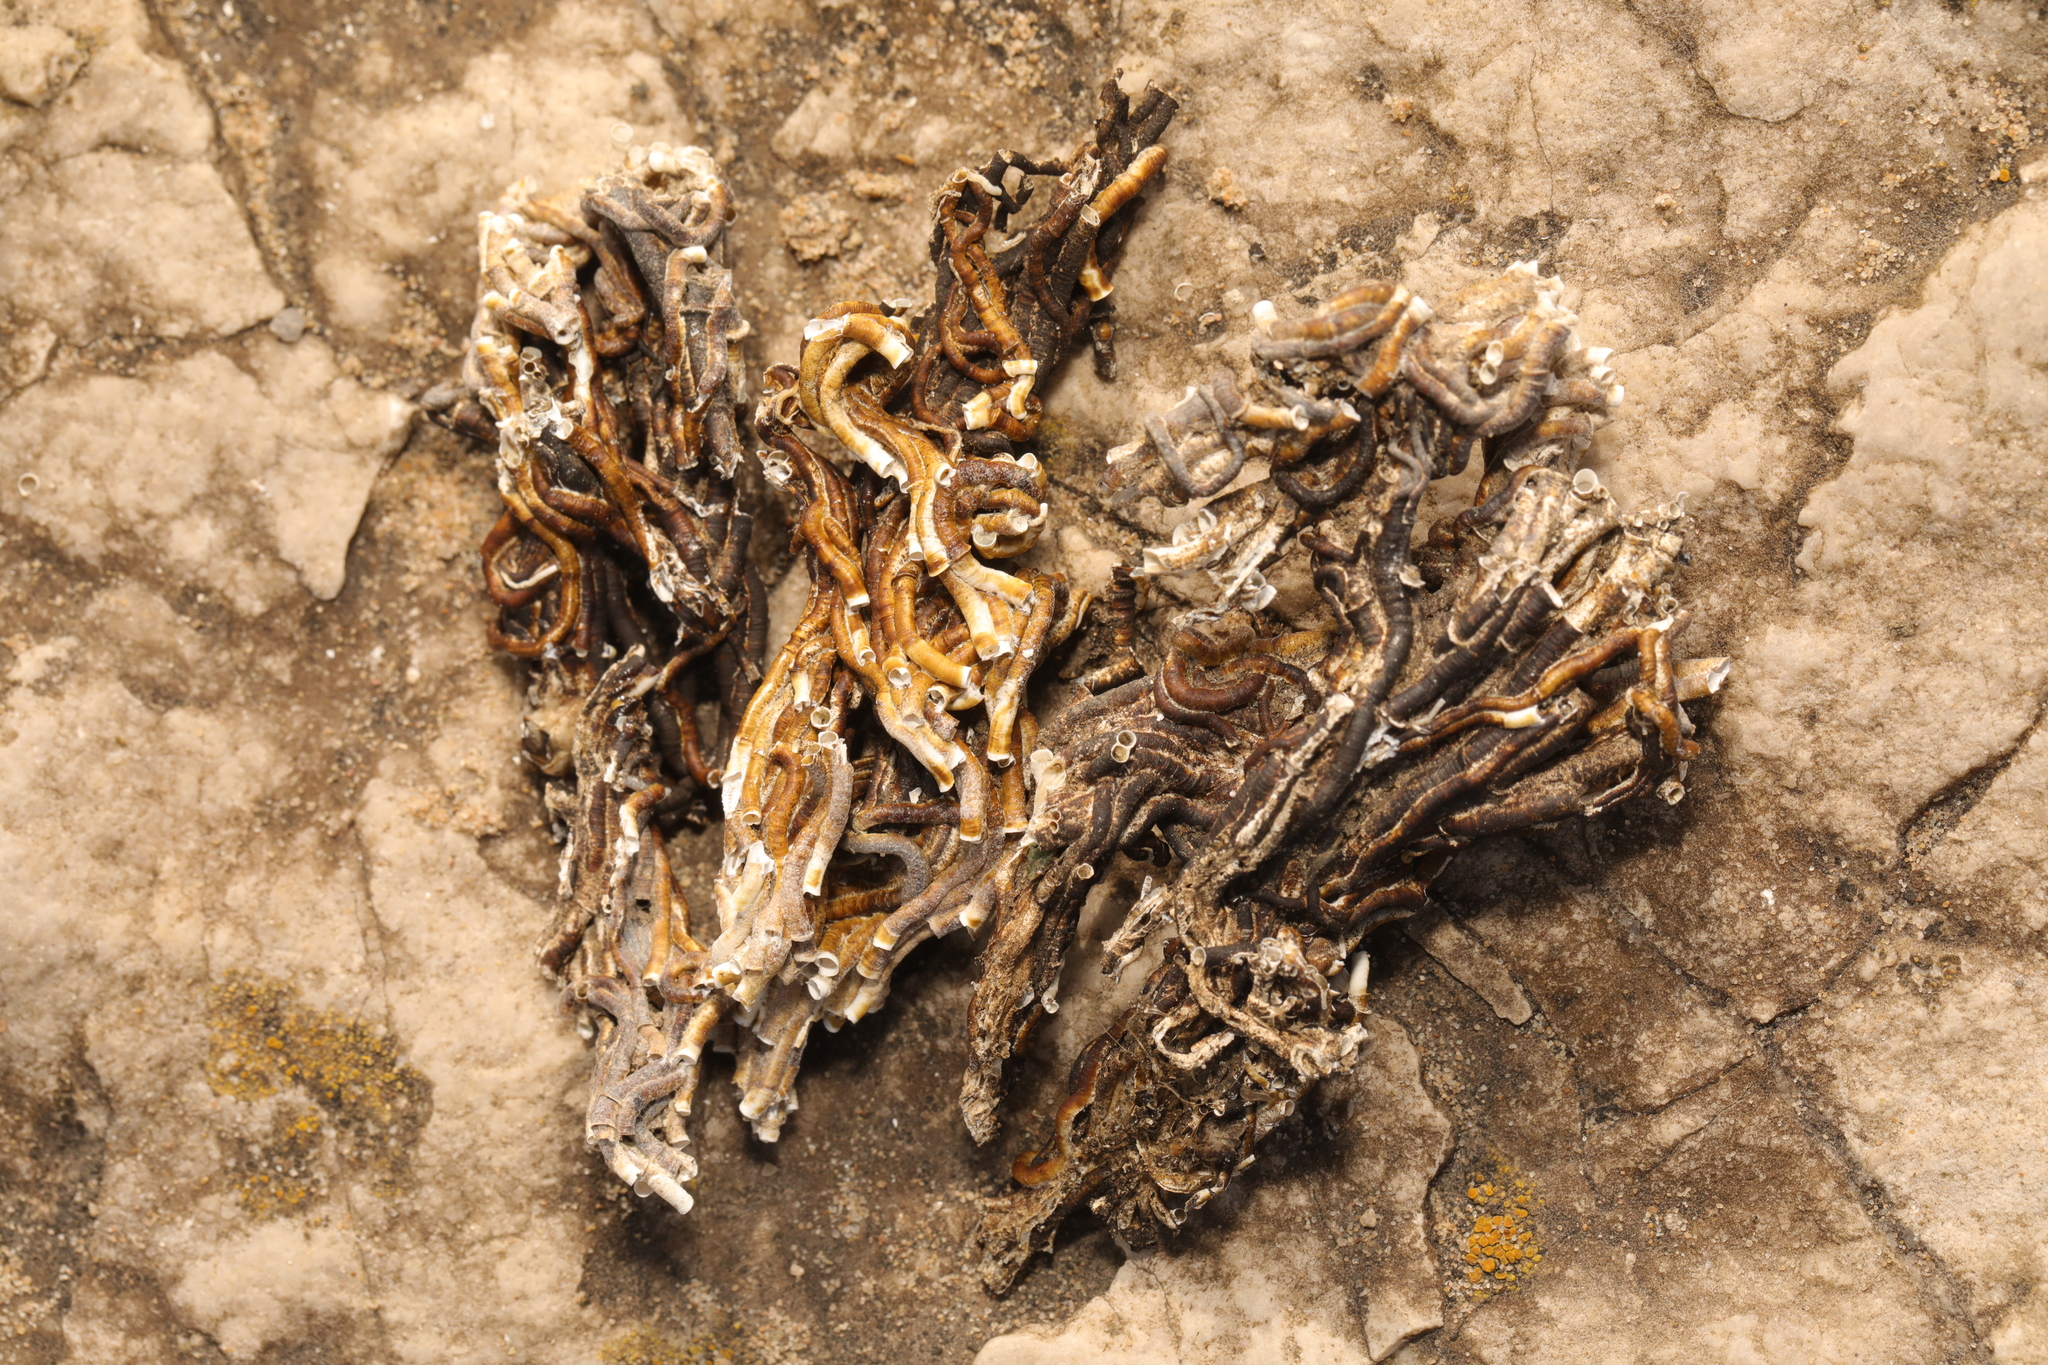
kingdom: Animalia
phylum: Annelida
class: Polychaeta
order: Sabellida
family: Serpulidae
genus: Ficopomatus
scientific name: Ficopomatus enigmaticus
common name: Australian tubeworm
